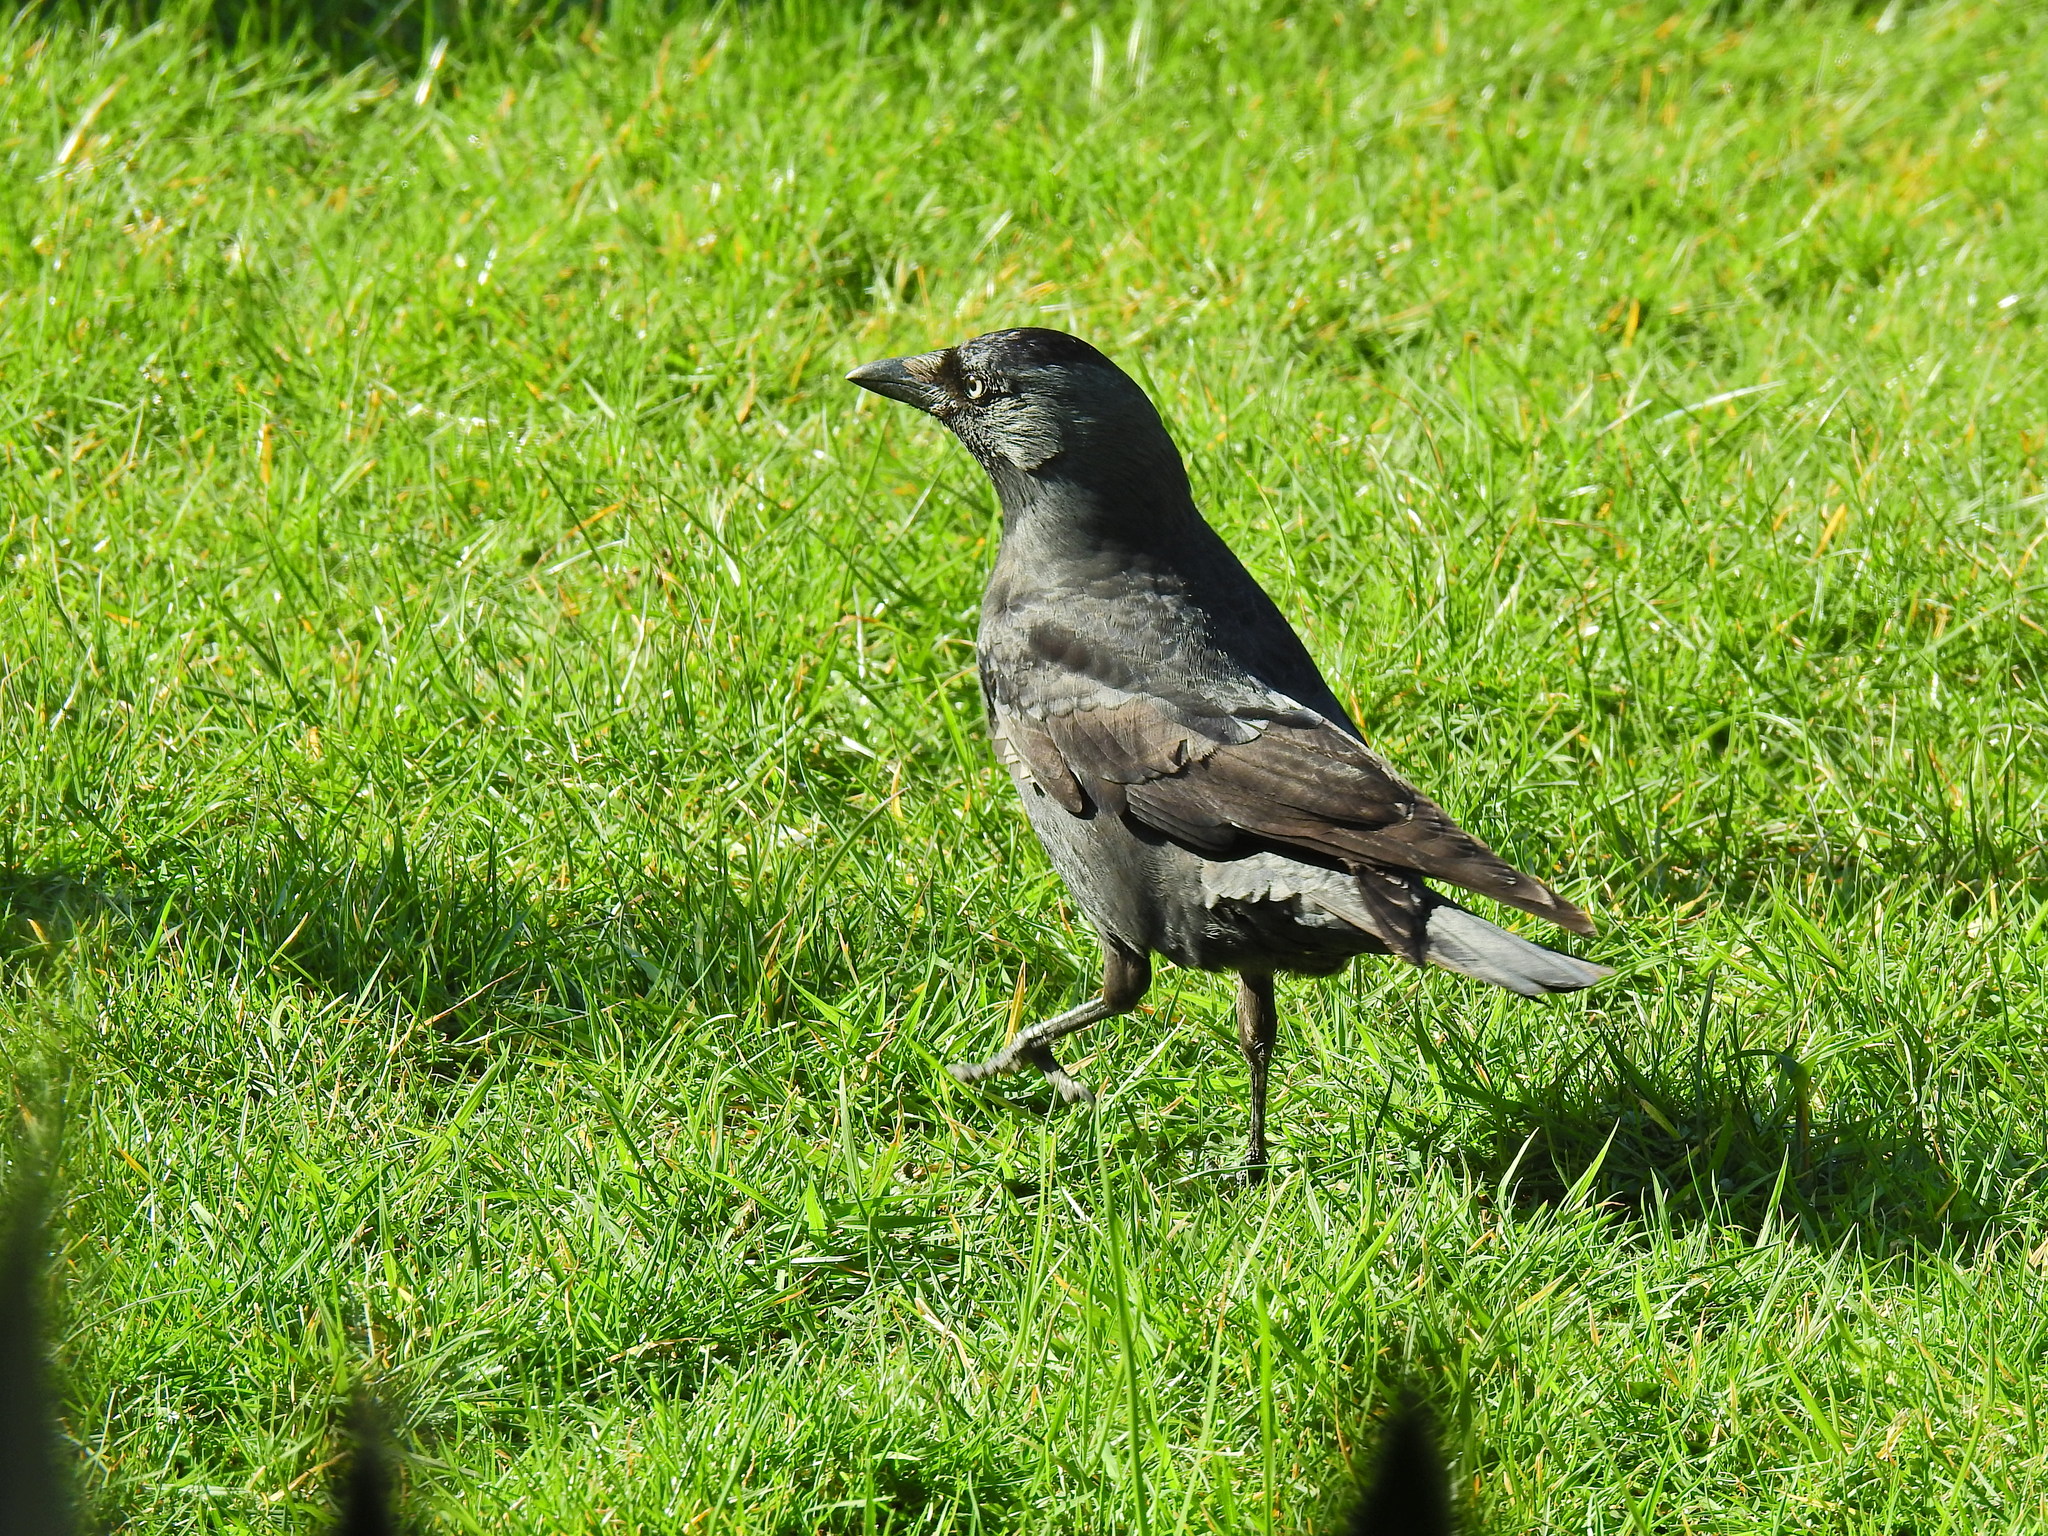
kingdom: Animalia
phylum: Chordata
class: Aves
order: Passeriformes
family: Corvidae
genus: Coloeus
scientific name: Coloeus monedula
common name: Western jackdaw
